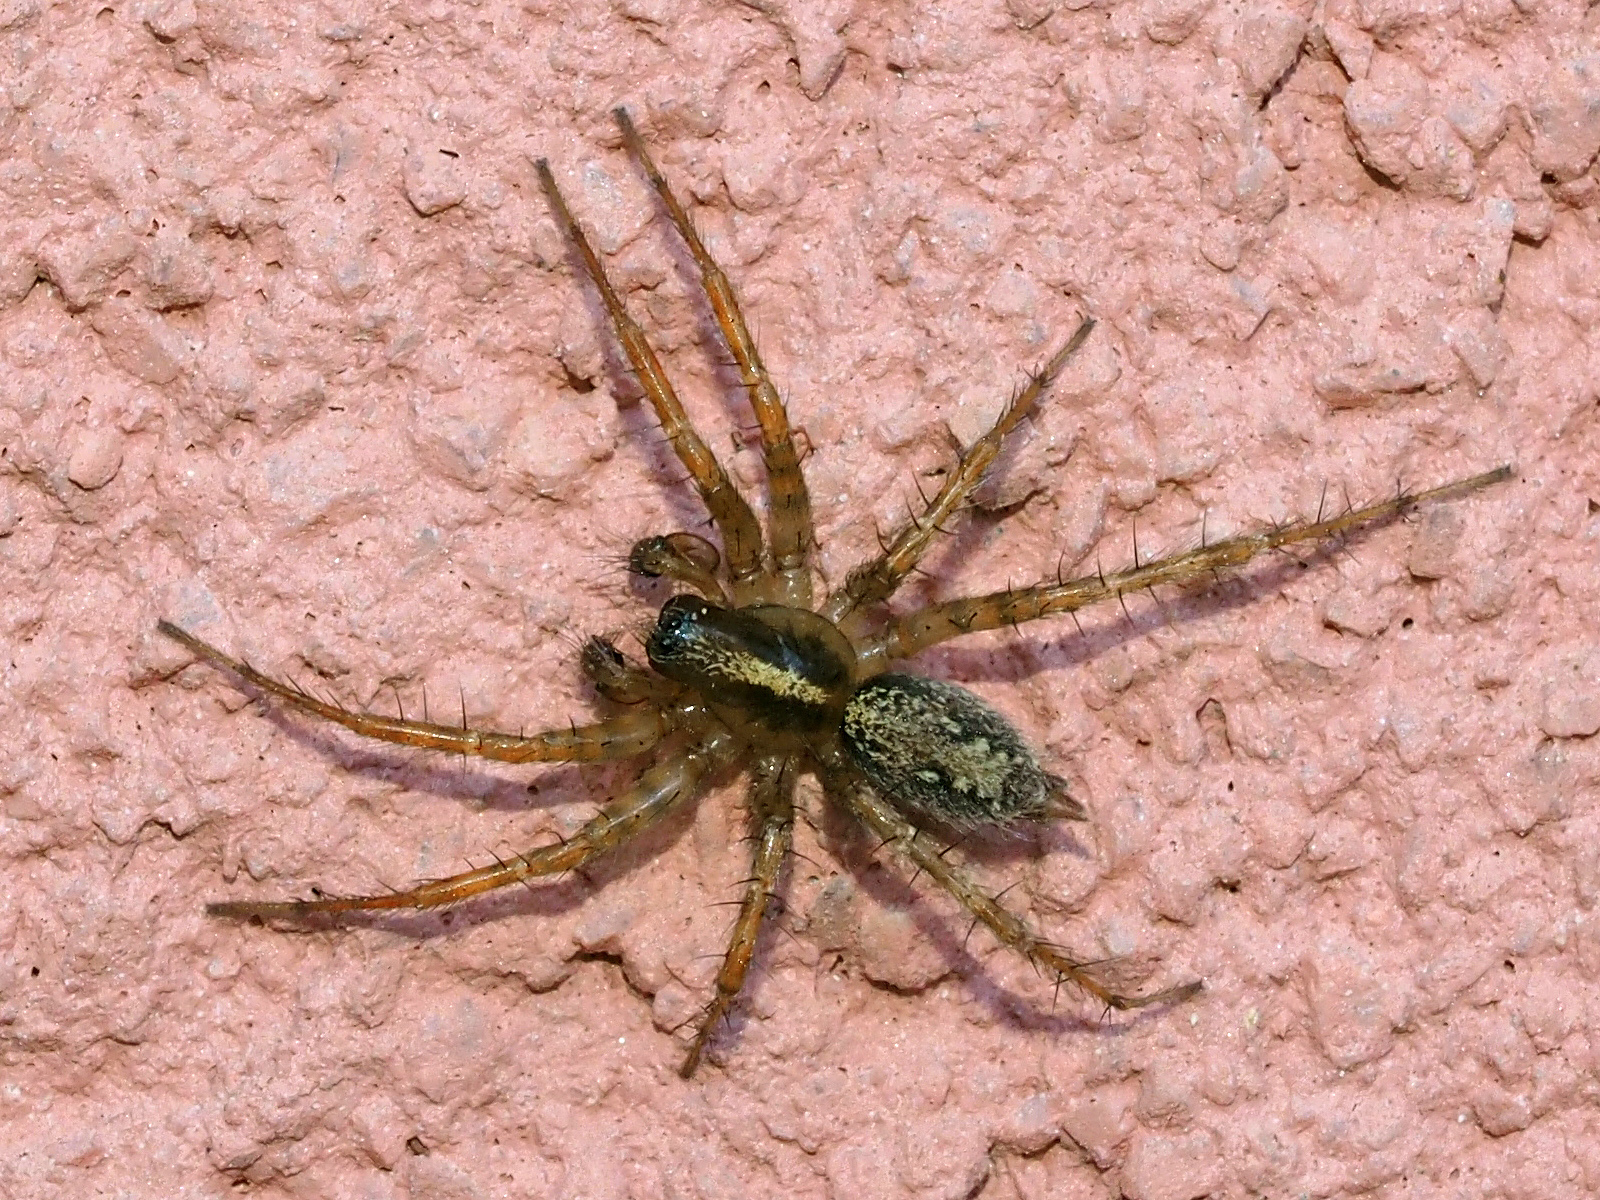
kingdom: Animalia
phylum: Arthropoda
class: Arachnida
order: Araneae
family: Agelenidae
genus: Maimuna
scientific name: Maimuna vestita
